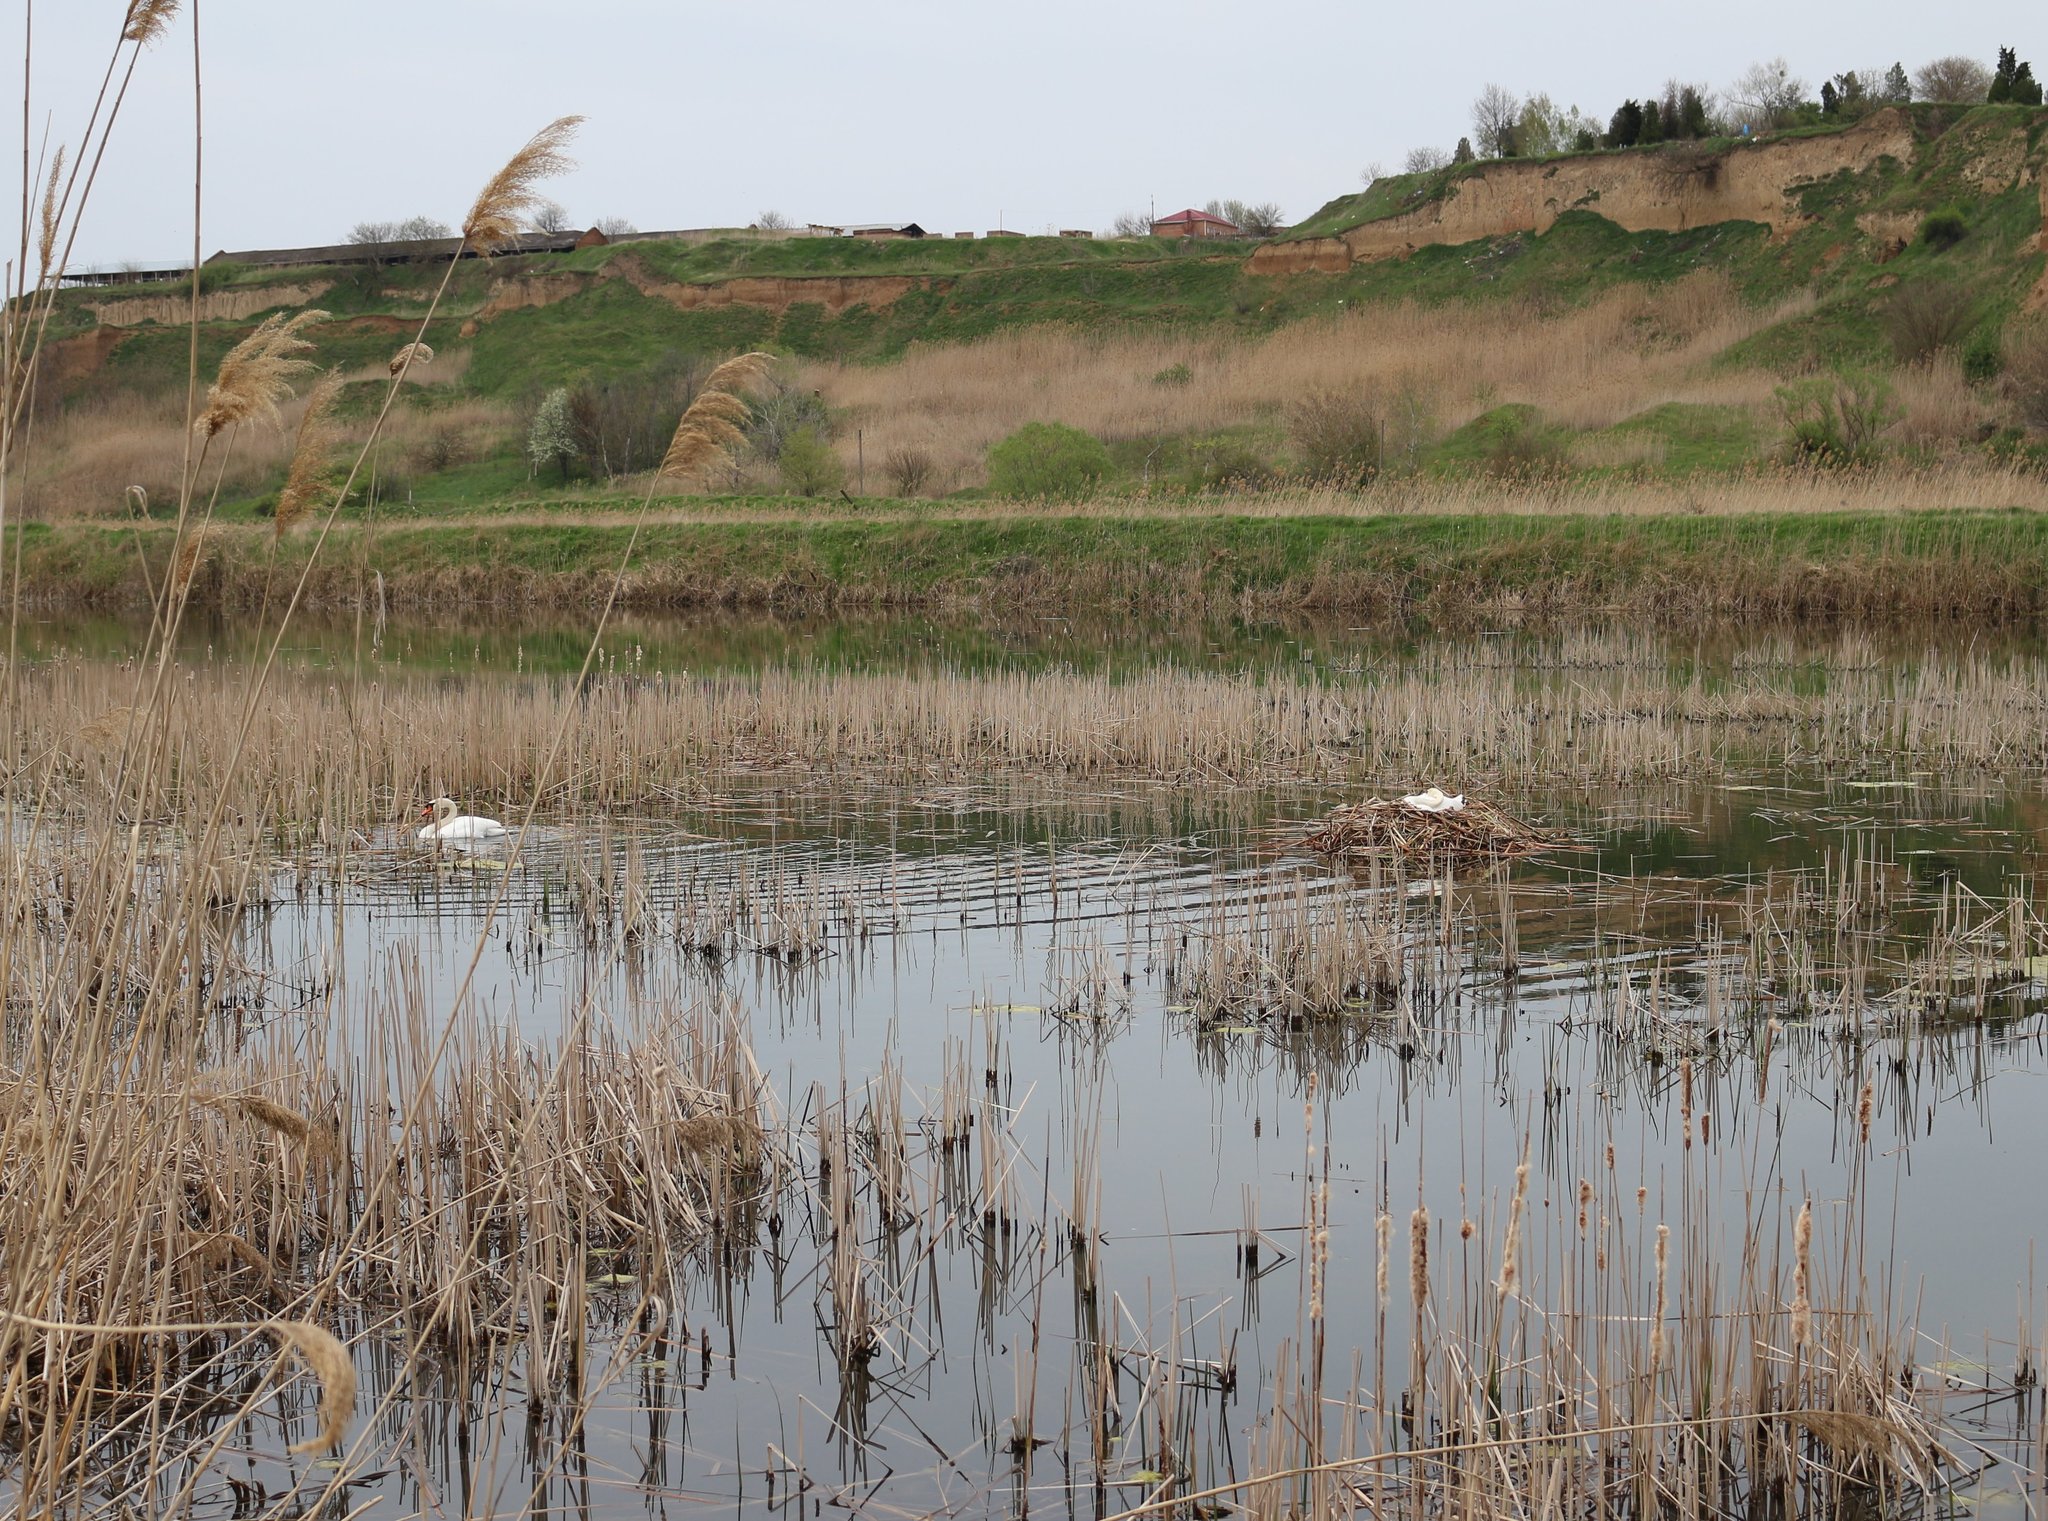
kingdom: Animalia
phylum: Chordata
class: Aves
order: Anseriformes
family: Anatidae
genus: Cygnus
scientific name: Cygnus olor
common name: Mute swan
